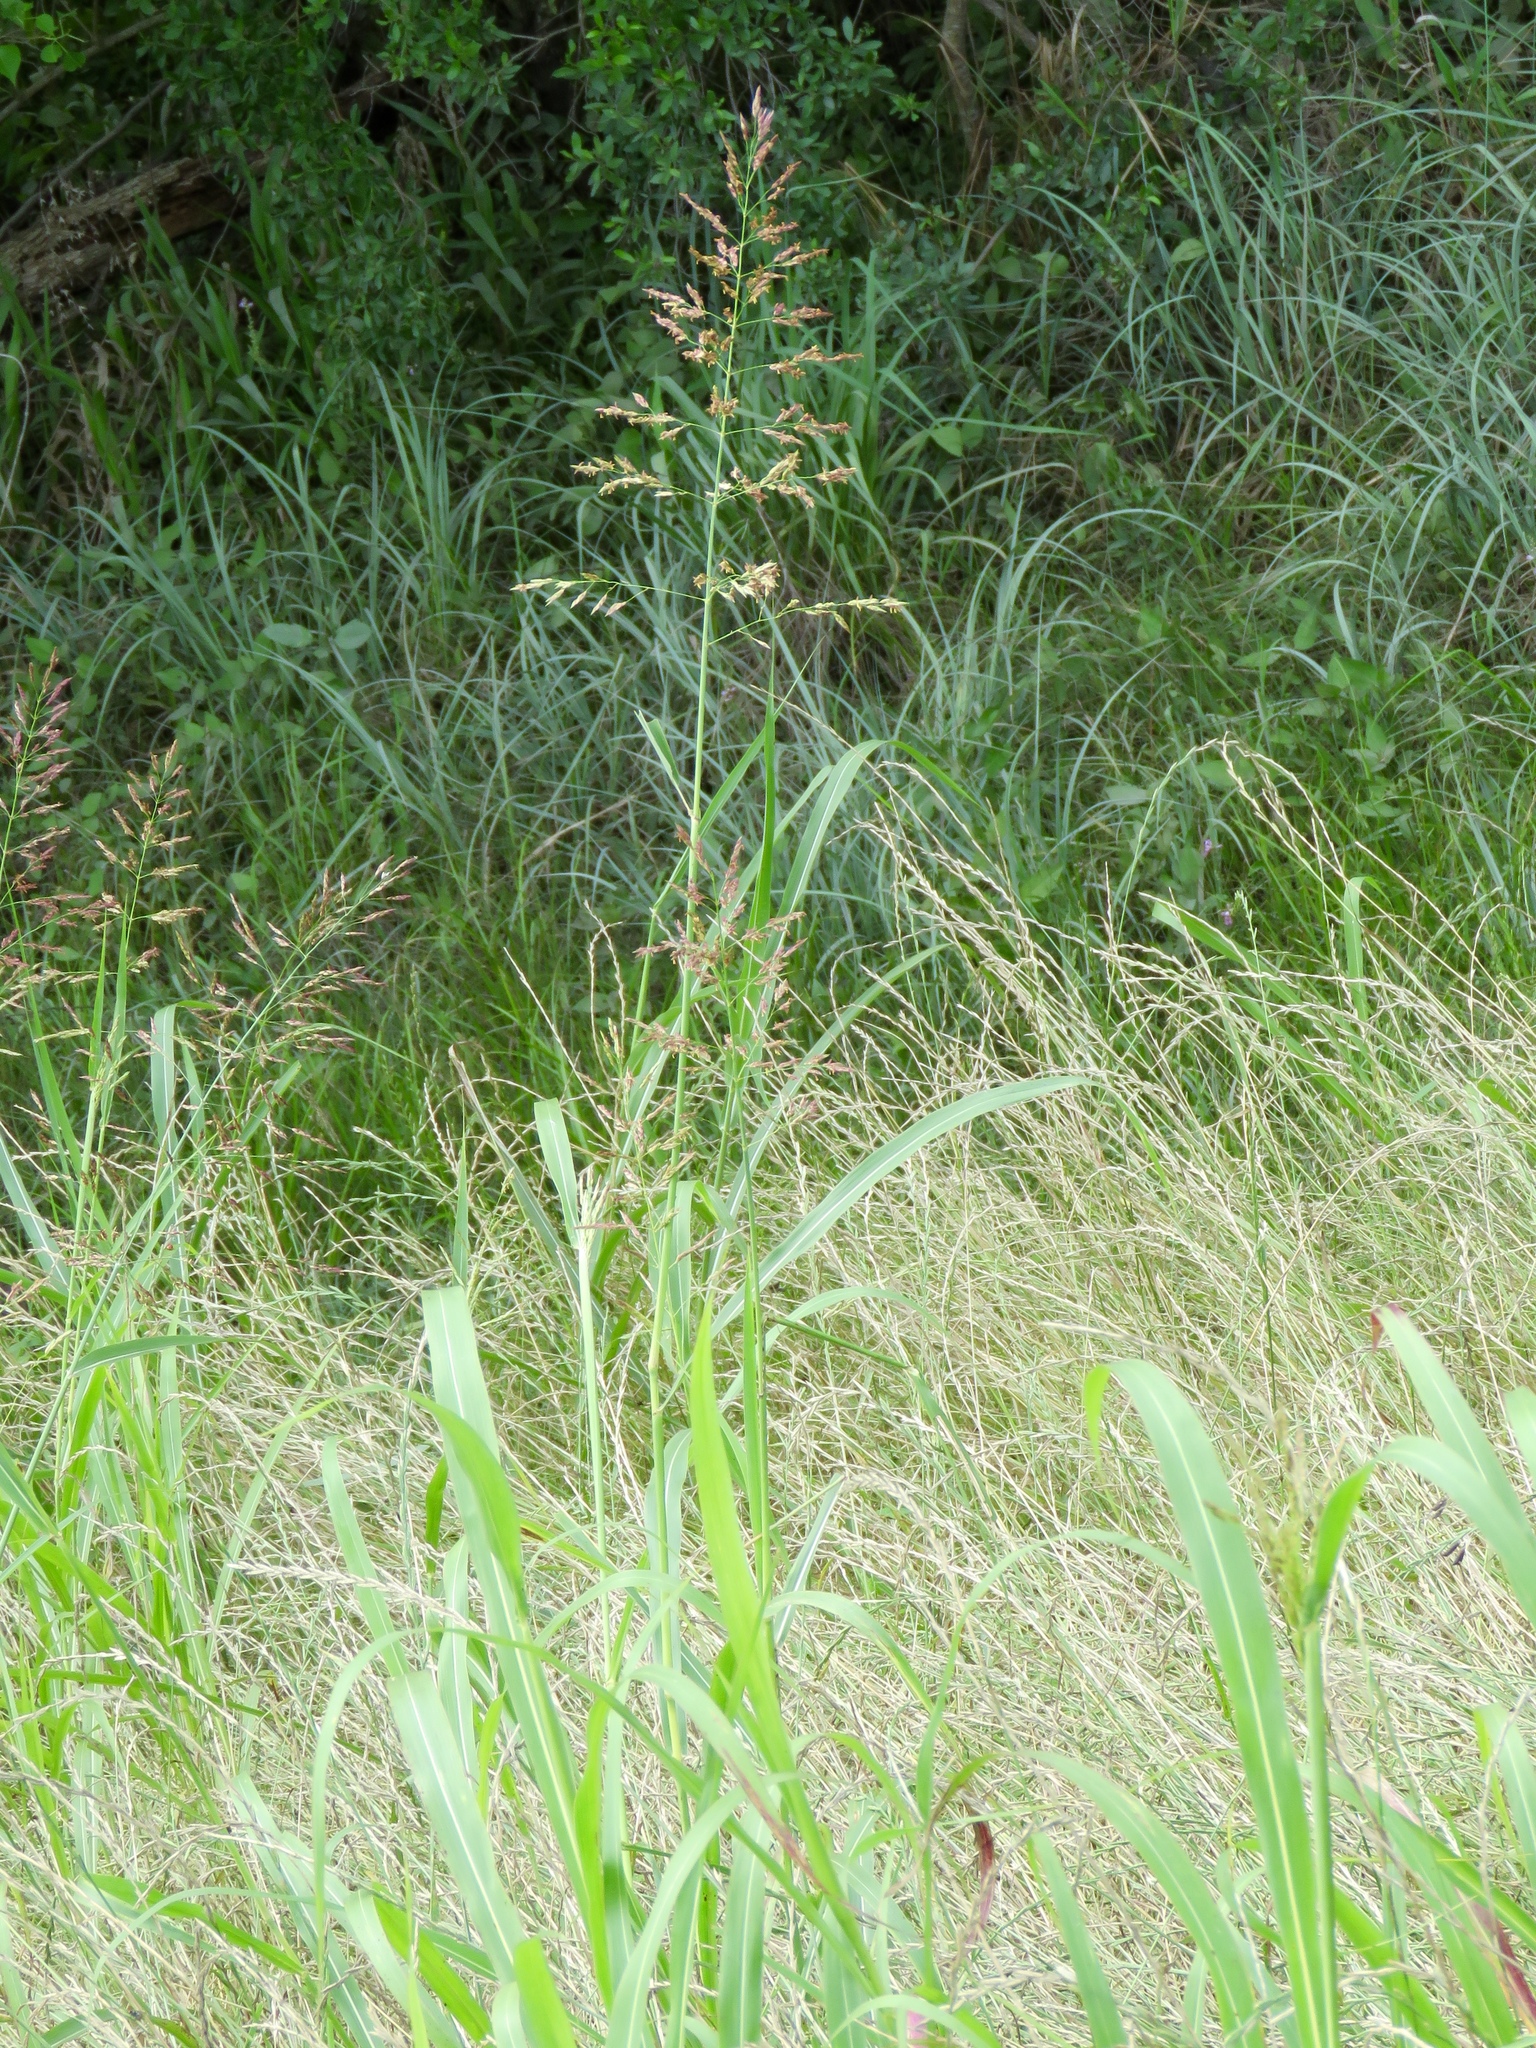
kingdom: Plantae
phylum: Tracheophyta
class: Liliopsida
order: Poales
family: Poaceae
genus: Sorghum
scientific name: Sorghum halepense
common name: Johnson-grass
